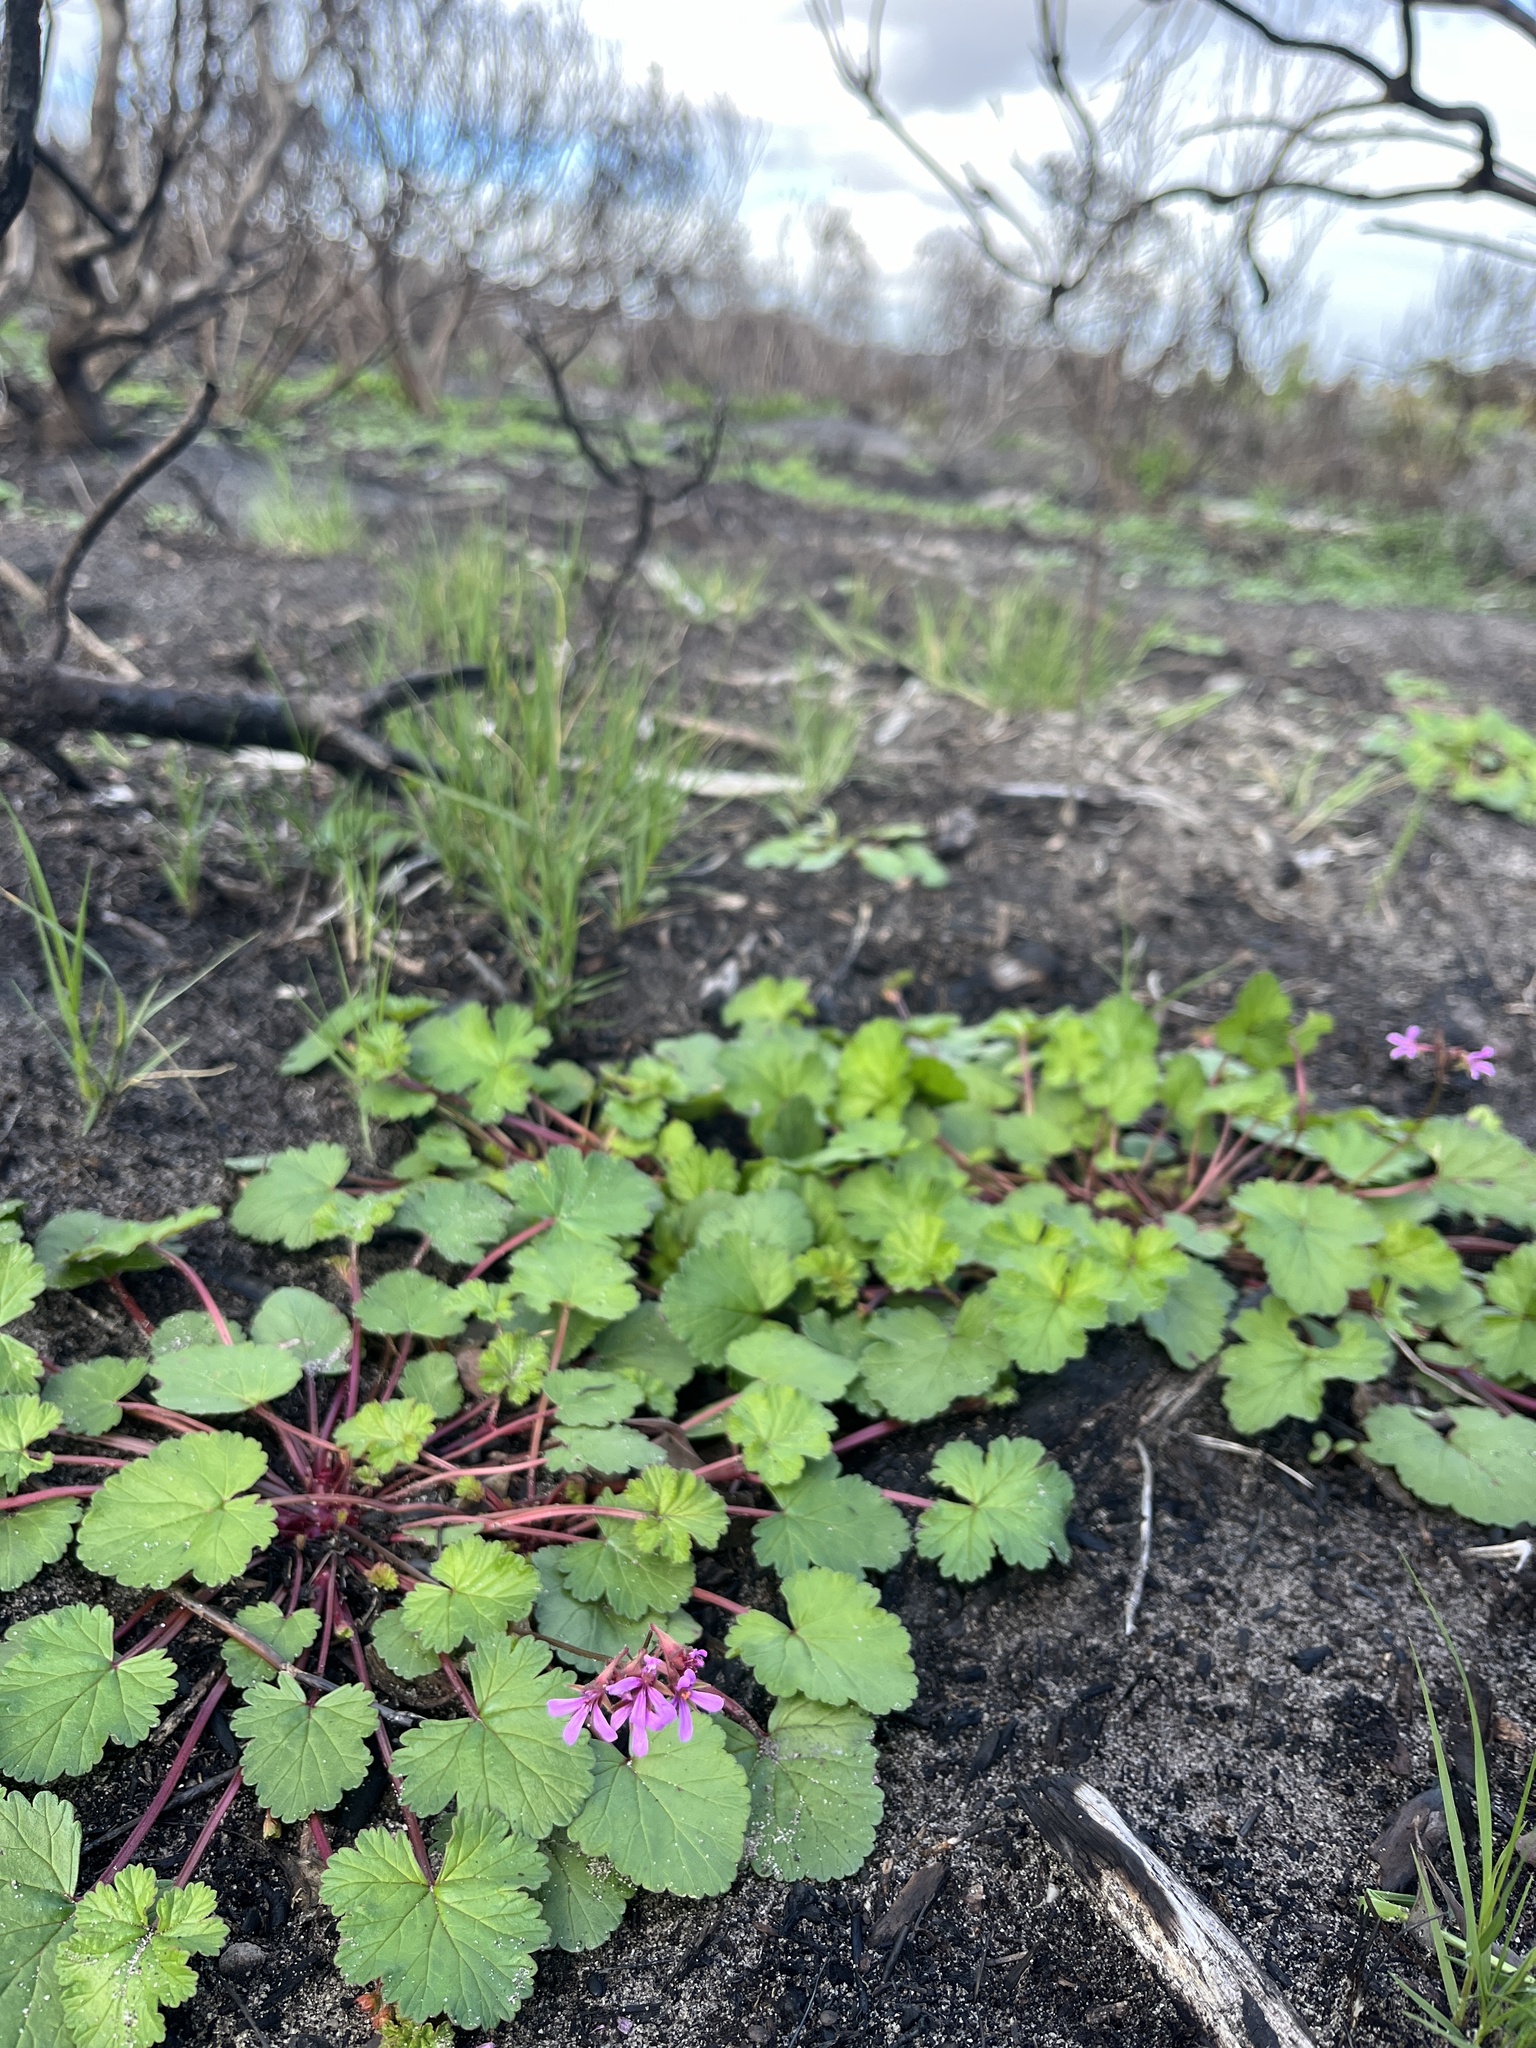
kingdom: Plantae
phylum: Tracheophyta
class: Magnoliopsida
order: Geraniales
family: Geraniaceae
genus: Pelargonium
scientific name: Pelargonium grossularioides
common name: Gooseberry geranium
